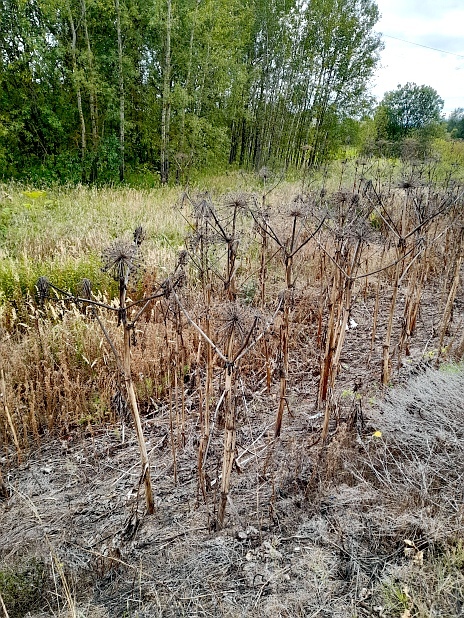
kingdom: Plantae
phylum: Tracheophyta
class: Magnoliopsida
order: Apiales
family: Apiaceae
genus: Heracleum
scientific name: Heracleum sosnowskyi
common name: Sosnowsky's hogweed
